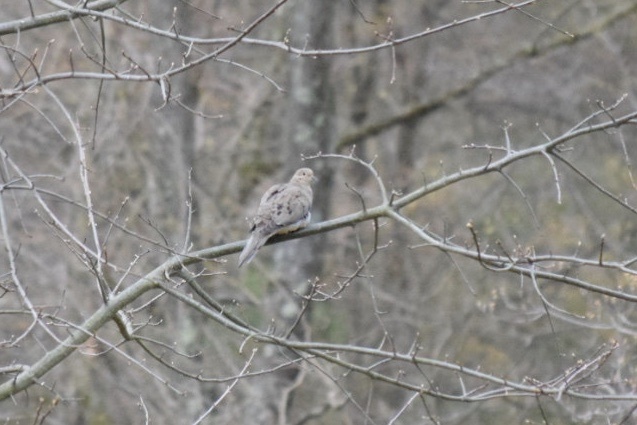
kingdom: Animalia
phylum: Chordata
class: Aves
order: Columbiformes
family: Columbidae
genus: Zenaida
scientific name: Zenaida macroura
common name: Mourning dove
